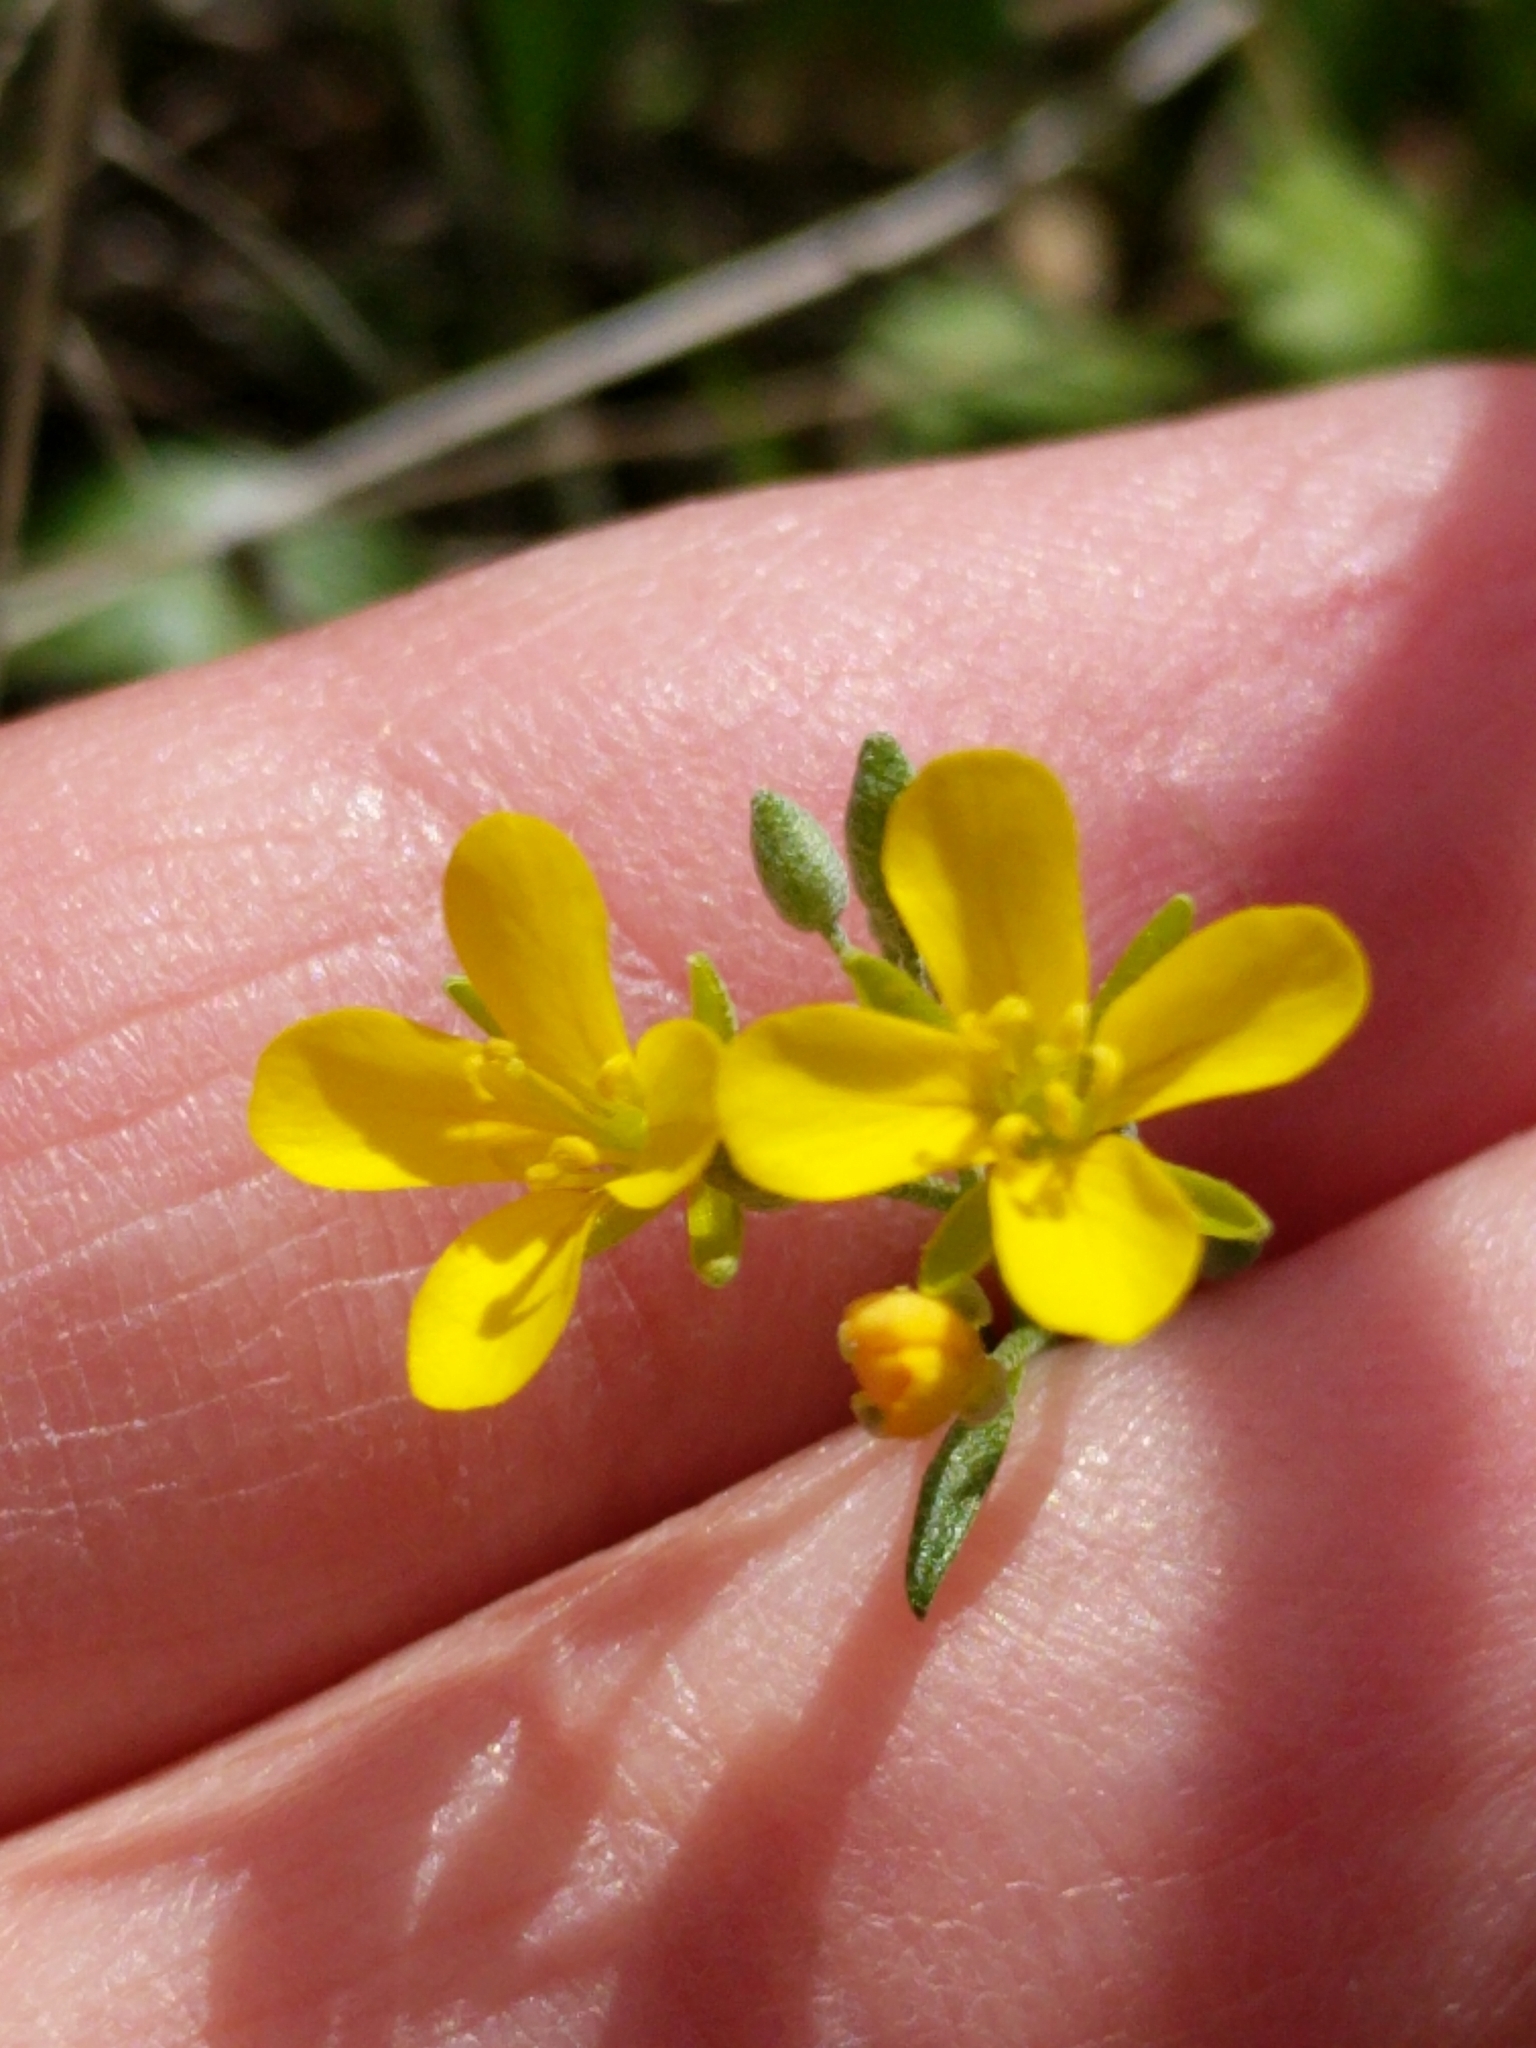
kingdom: Plantae
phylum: Tracheophyta
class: Magnoliopsida
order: Brassicales
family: Brassicaceae
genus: Physaria
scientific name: Physaria recurvata
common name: Gaslight bladderpod
